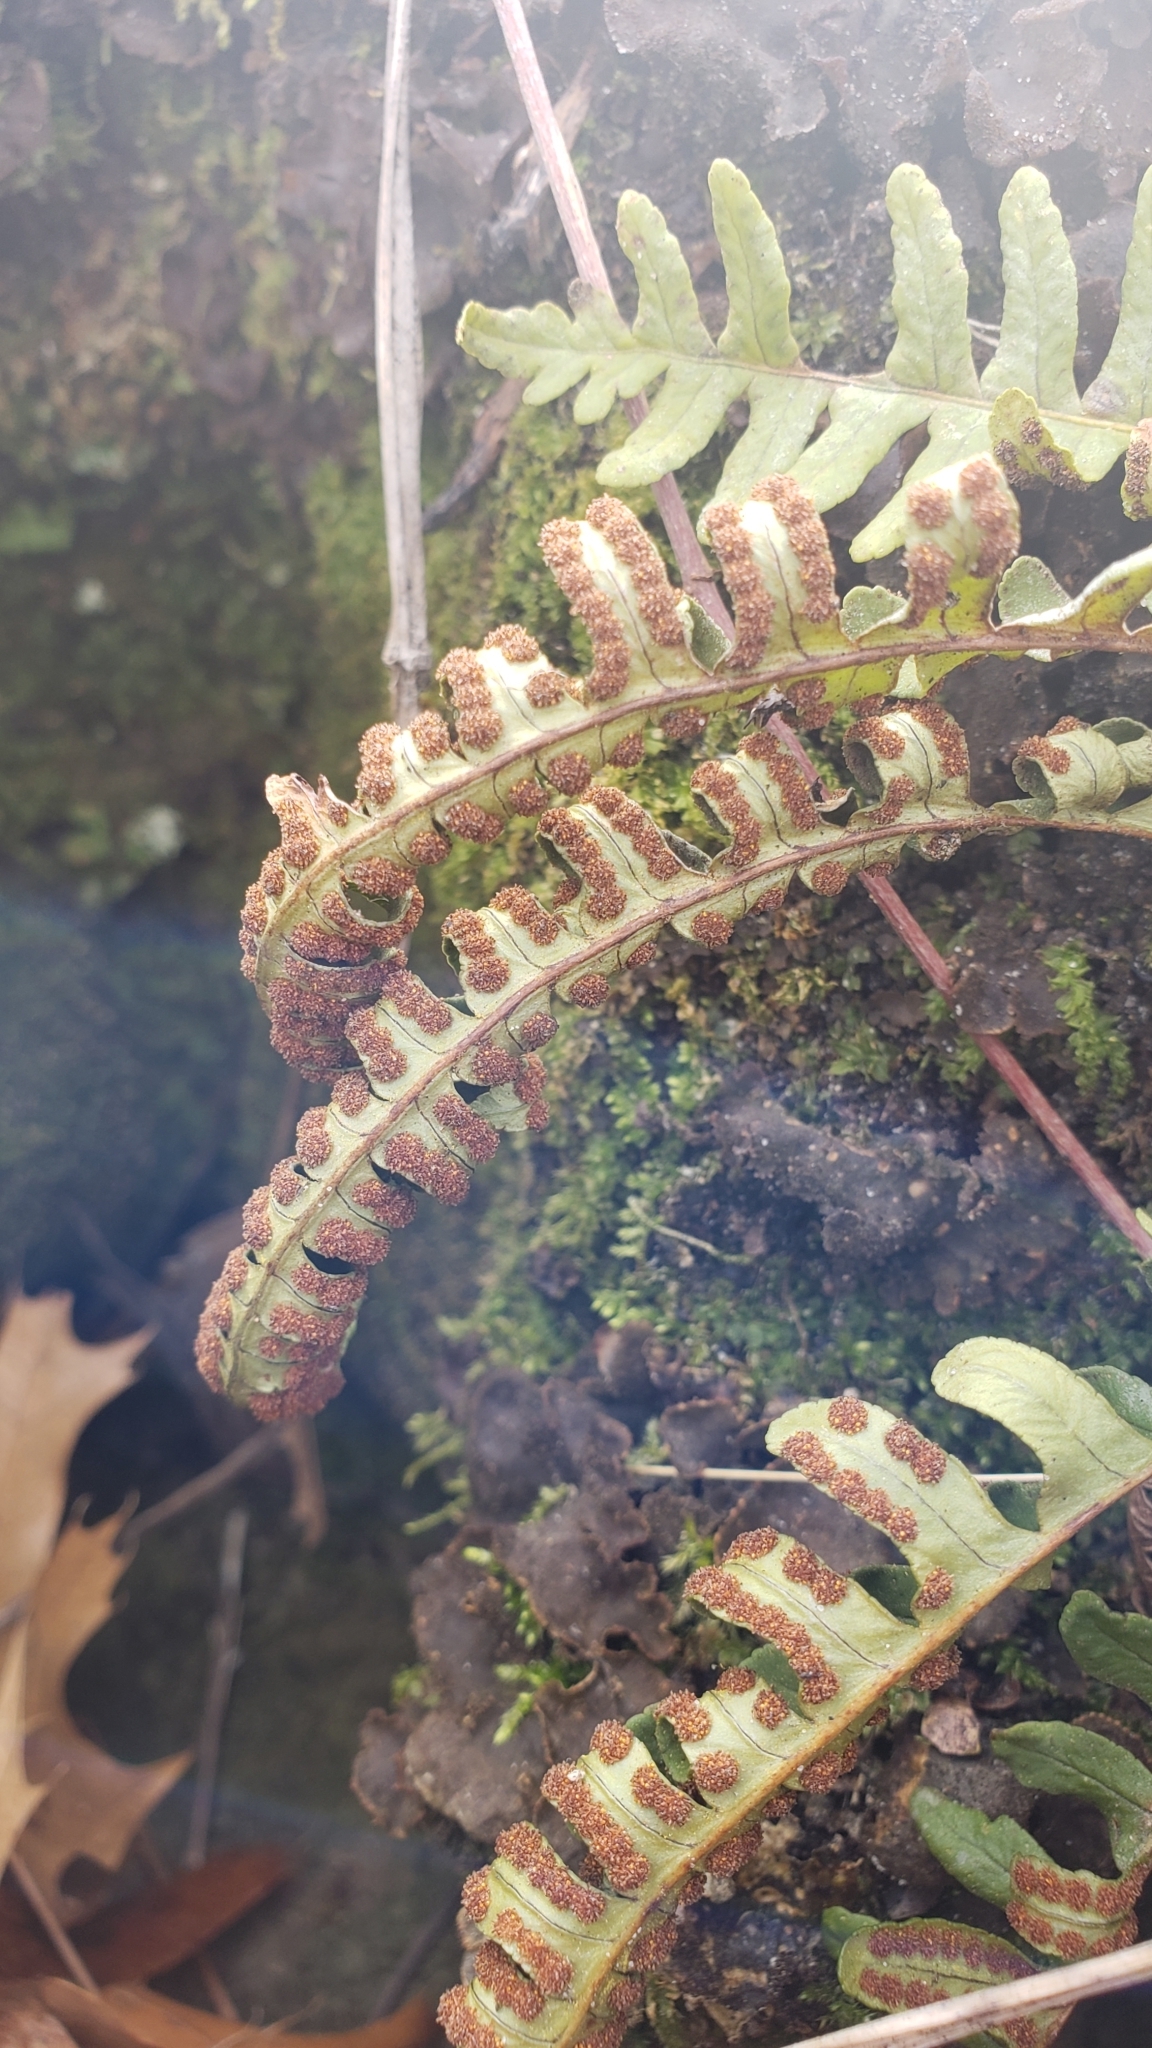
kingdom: Plantae
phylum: Tracheophyta
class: Polypodiopsida
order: Polypodiales
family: Polypodiaceae
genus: Polypodium
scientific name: Polypodium virginianum
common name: American wall fern
